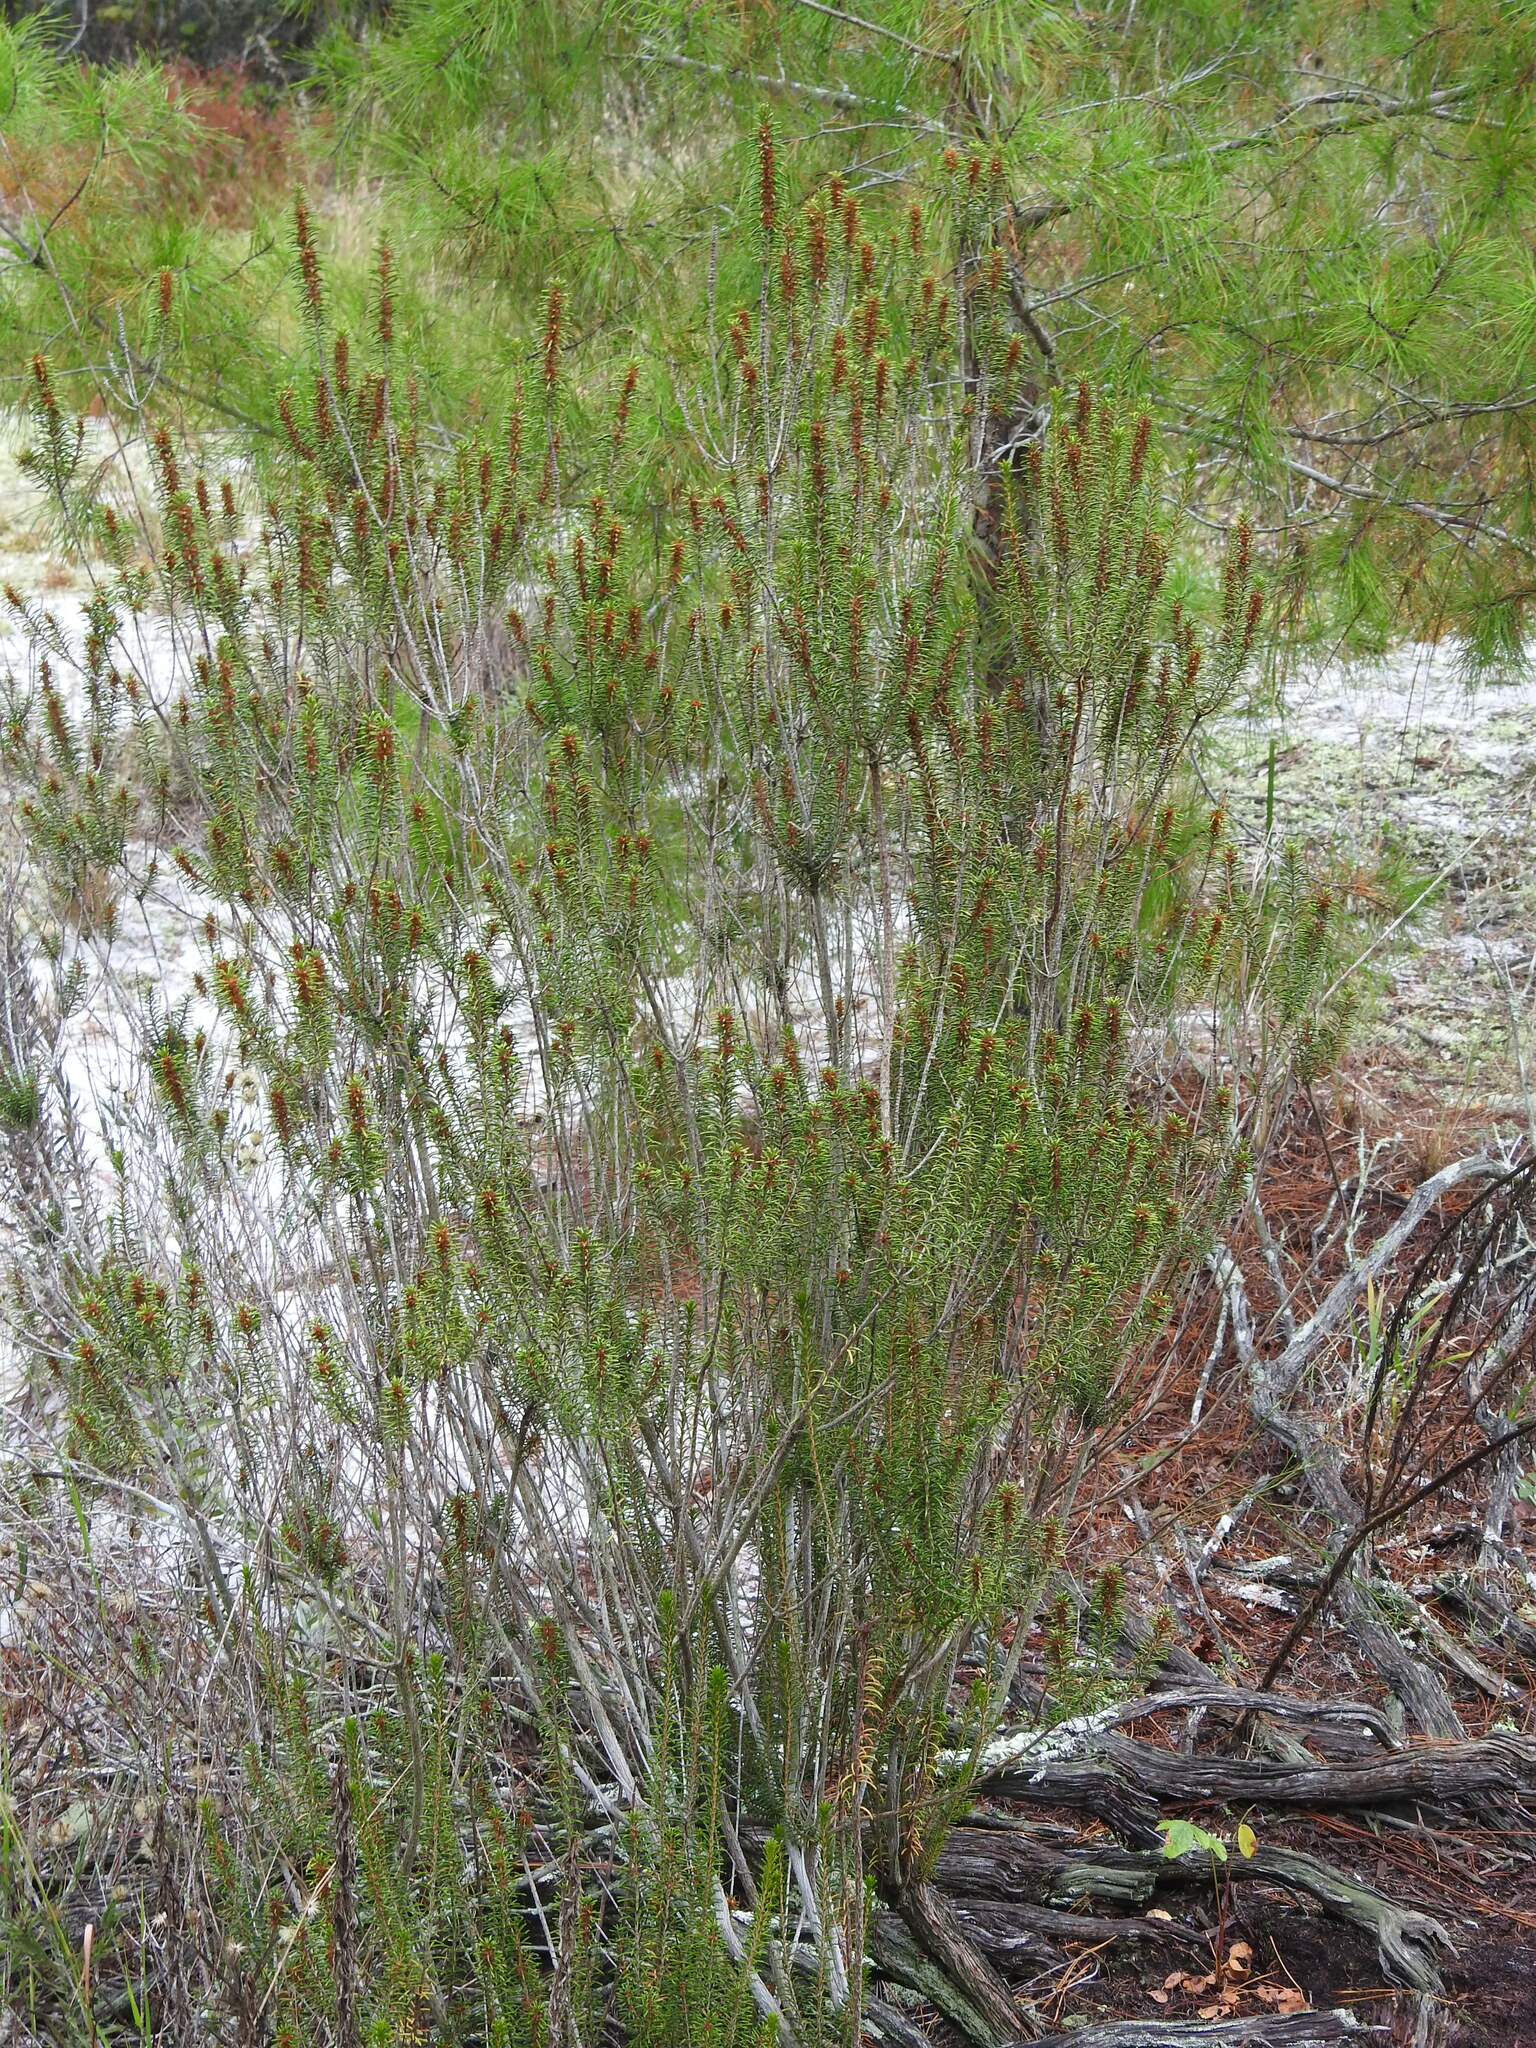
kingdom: Plantae
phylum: Tracheophyta
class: Magnoliopsida
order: Ericales
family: Ericaceae
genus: Ceratiola
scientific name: Ceratiola ericoides
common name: Sandhill-rosemary
